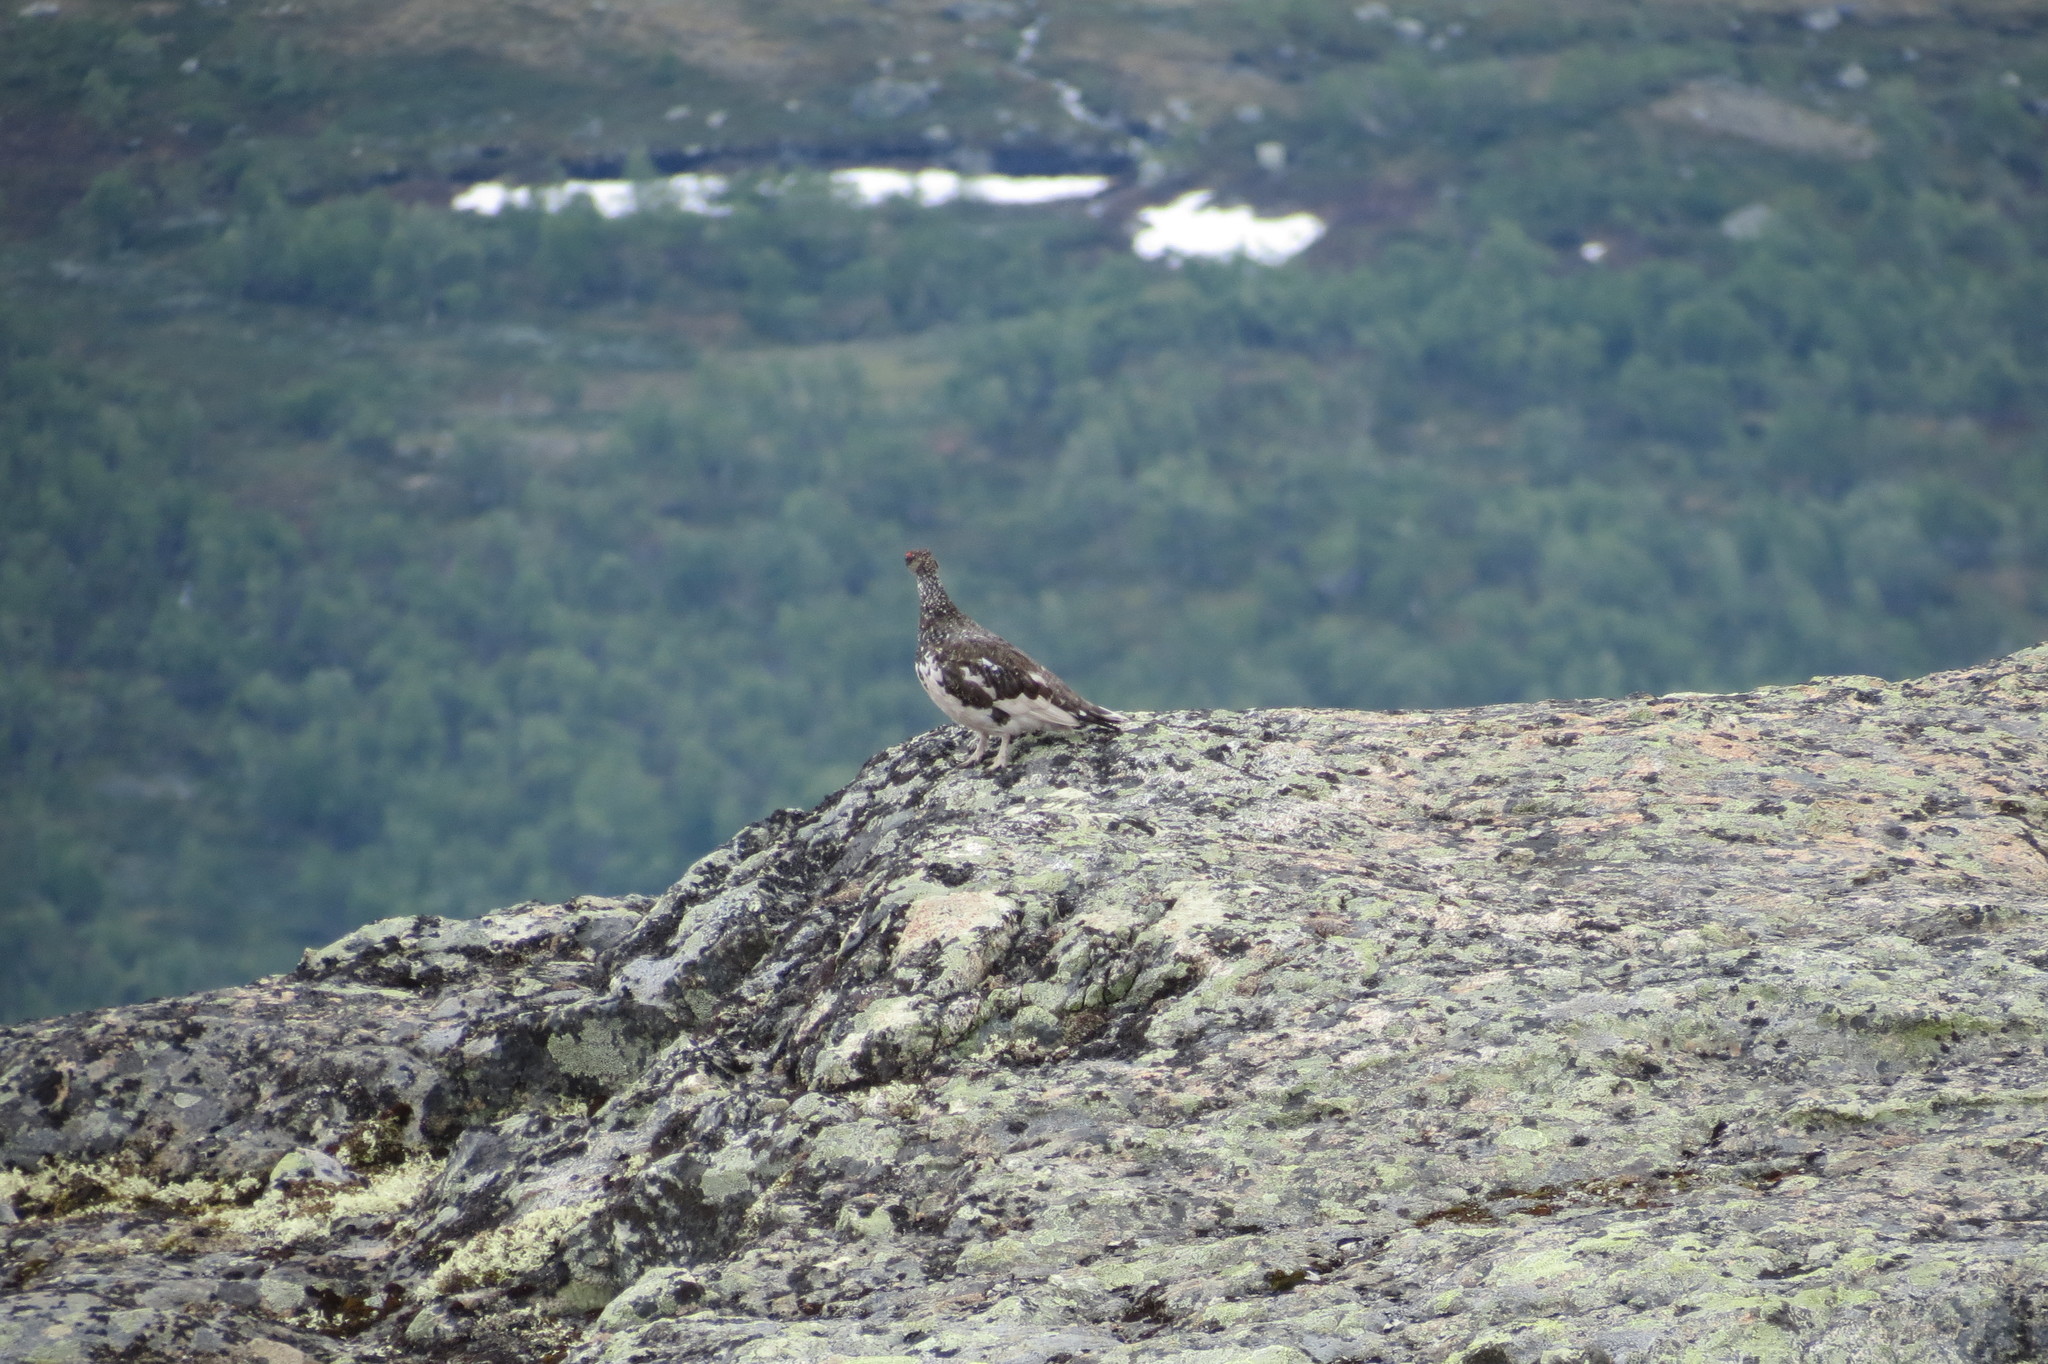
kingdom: Animalia
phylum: Chordata
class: Aves
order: Galliformes
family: Phasianidae
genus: Lagopus
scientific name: Lagopus muta
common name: Rock ptarmigan
